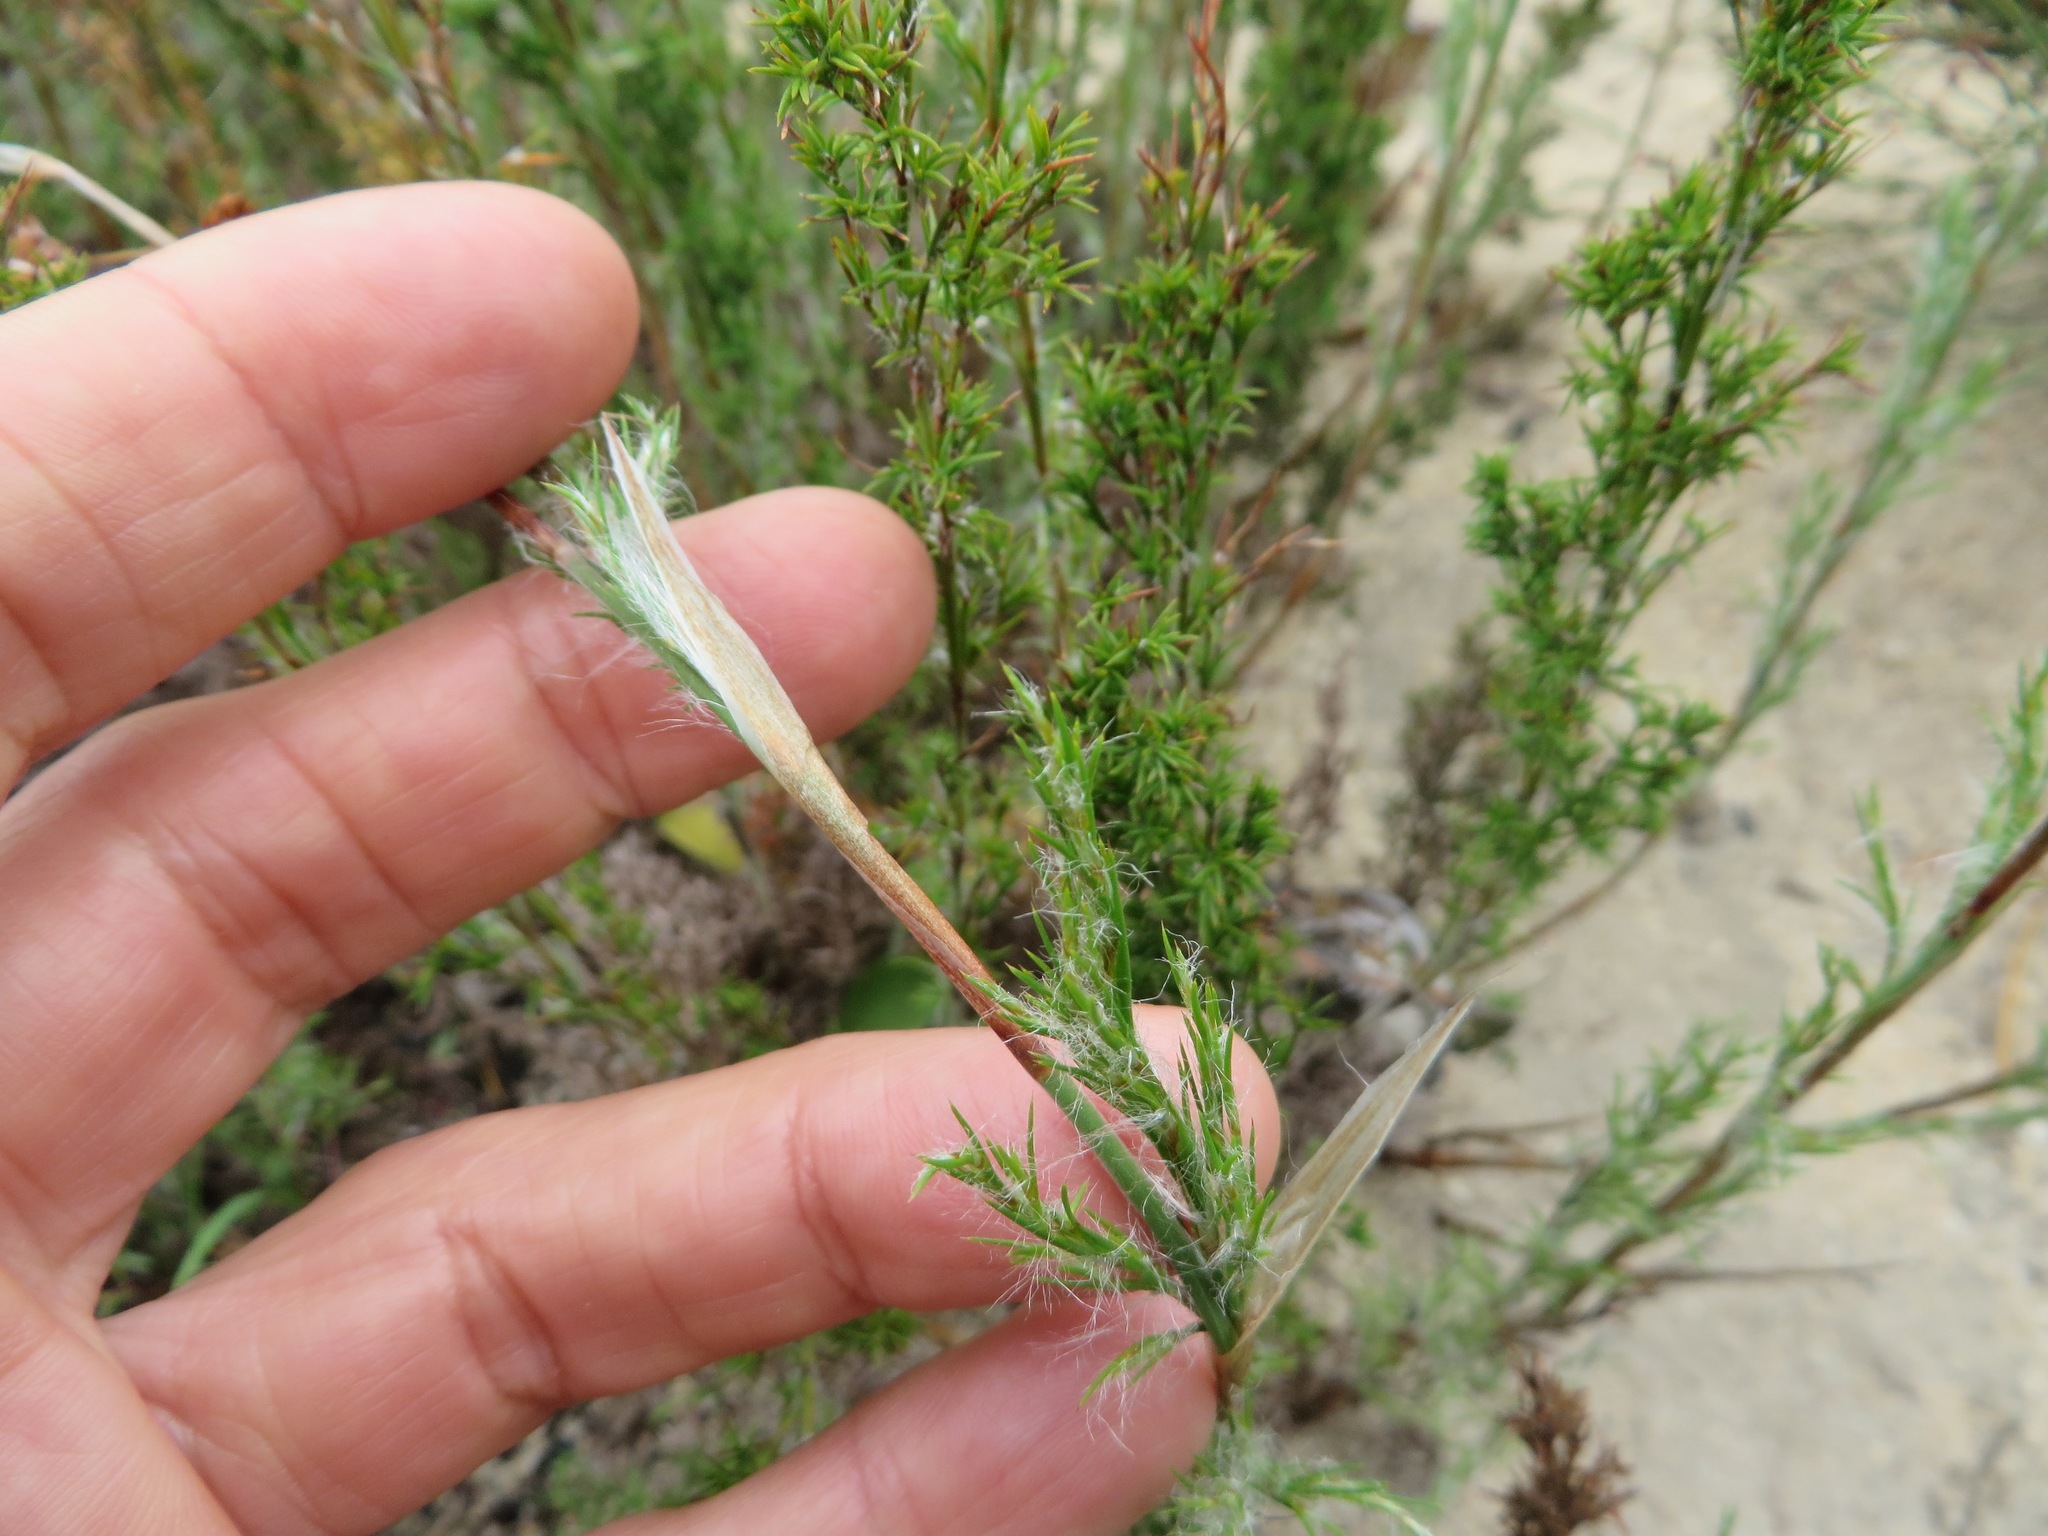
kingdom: Plantae
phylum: Tracheophyta
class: Liliopsida
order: Poales
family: Restionaceae
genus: Thamnochortus
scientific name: Thamnochortus fruticosus
